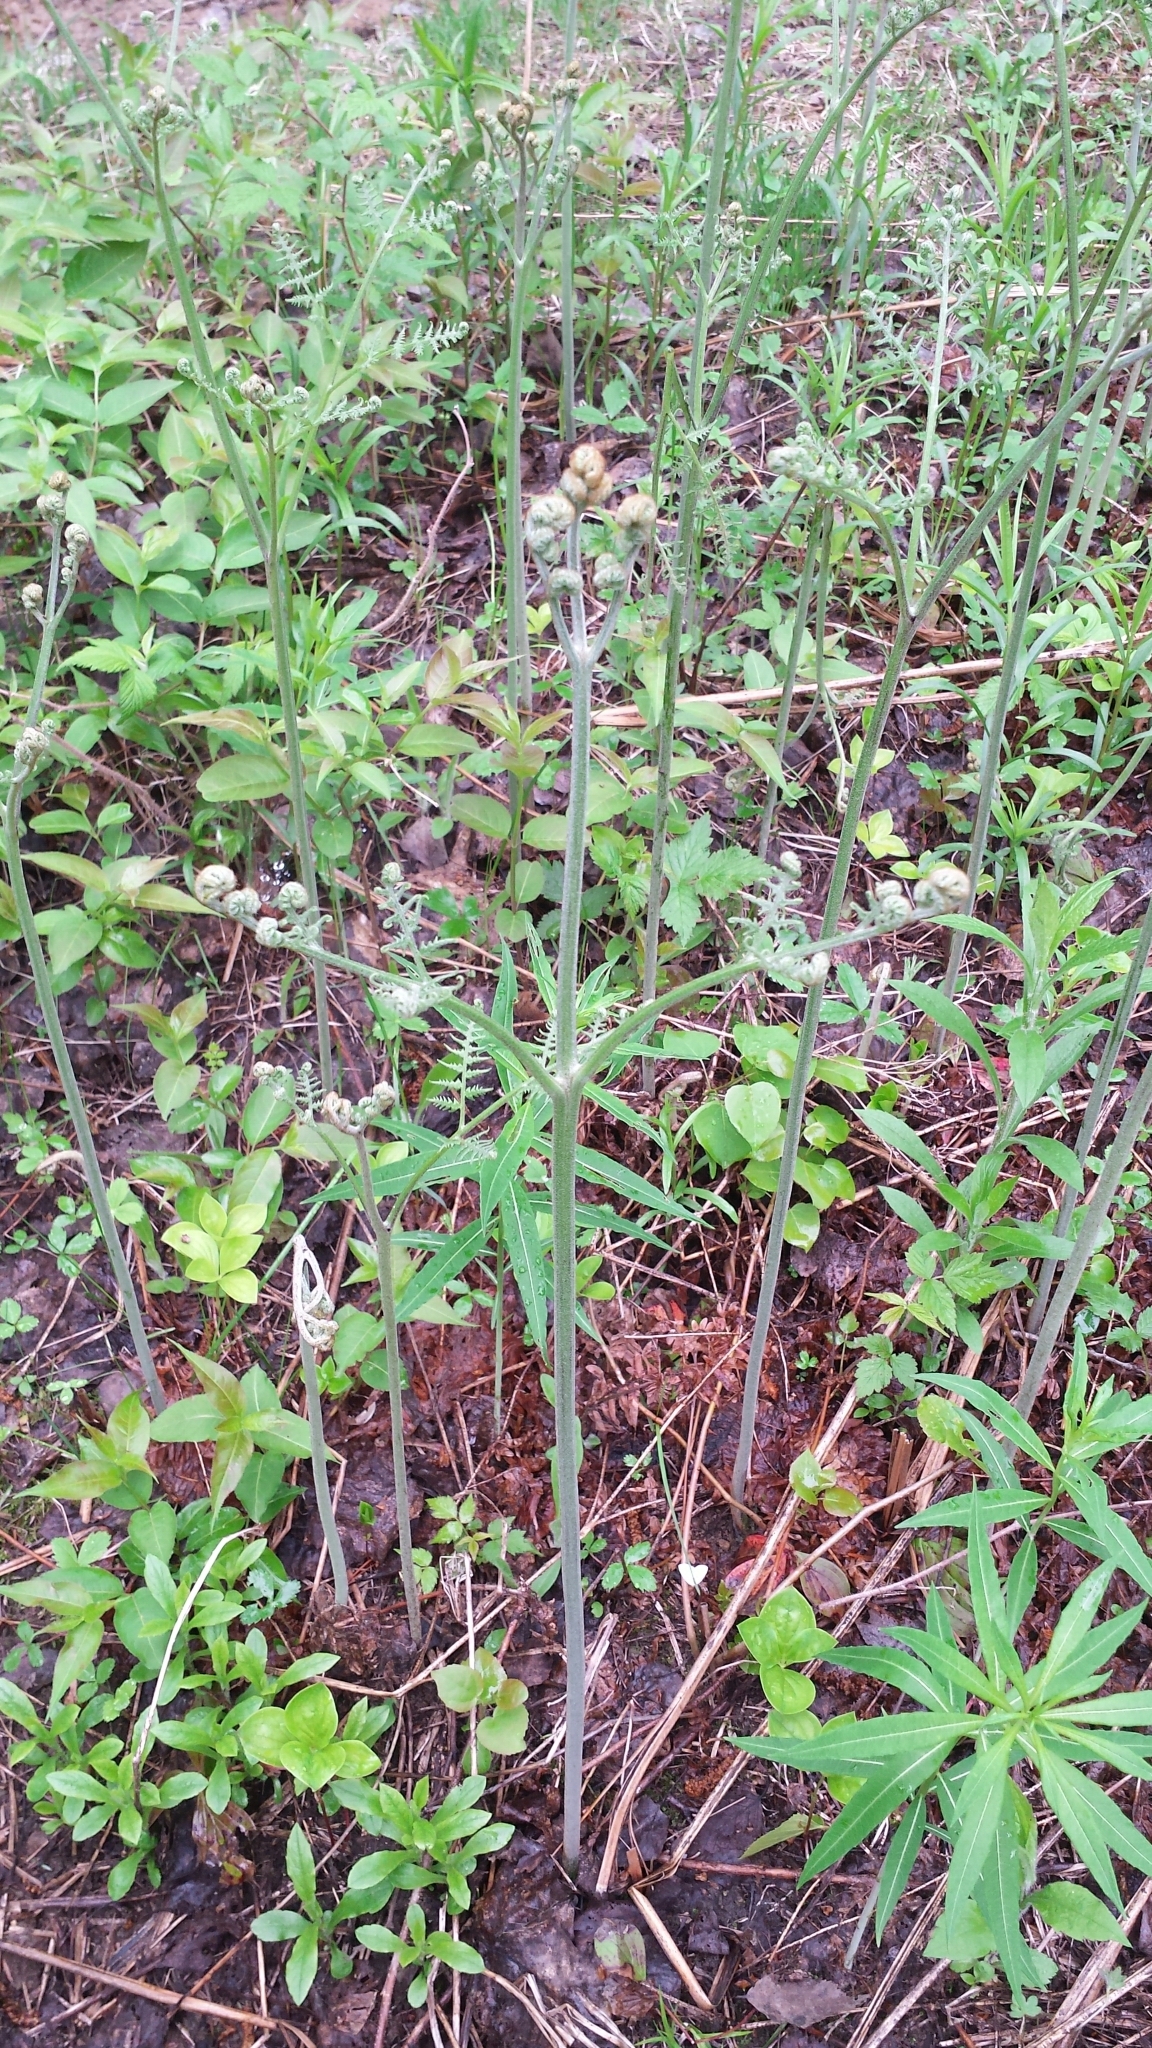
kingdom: Plantae
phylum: Tracheophyta
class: Polypodiopsida
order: Polypodiales
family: Dennstaedtiaceae
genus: Pteridium
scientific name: Pteridium aquilinum
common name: Bracken
